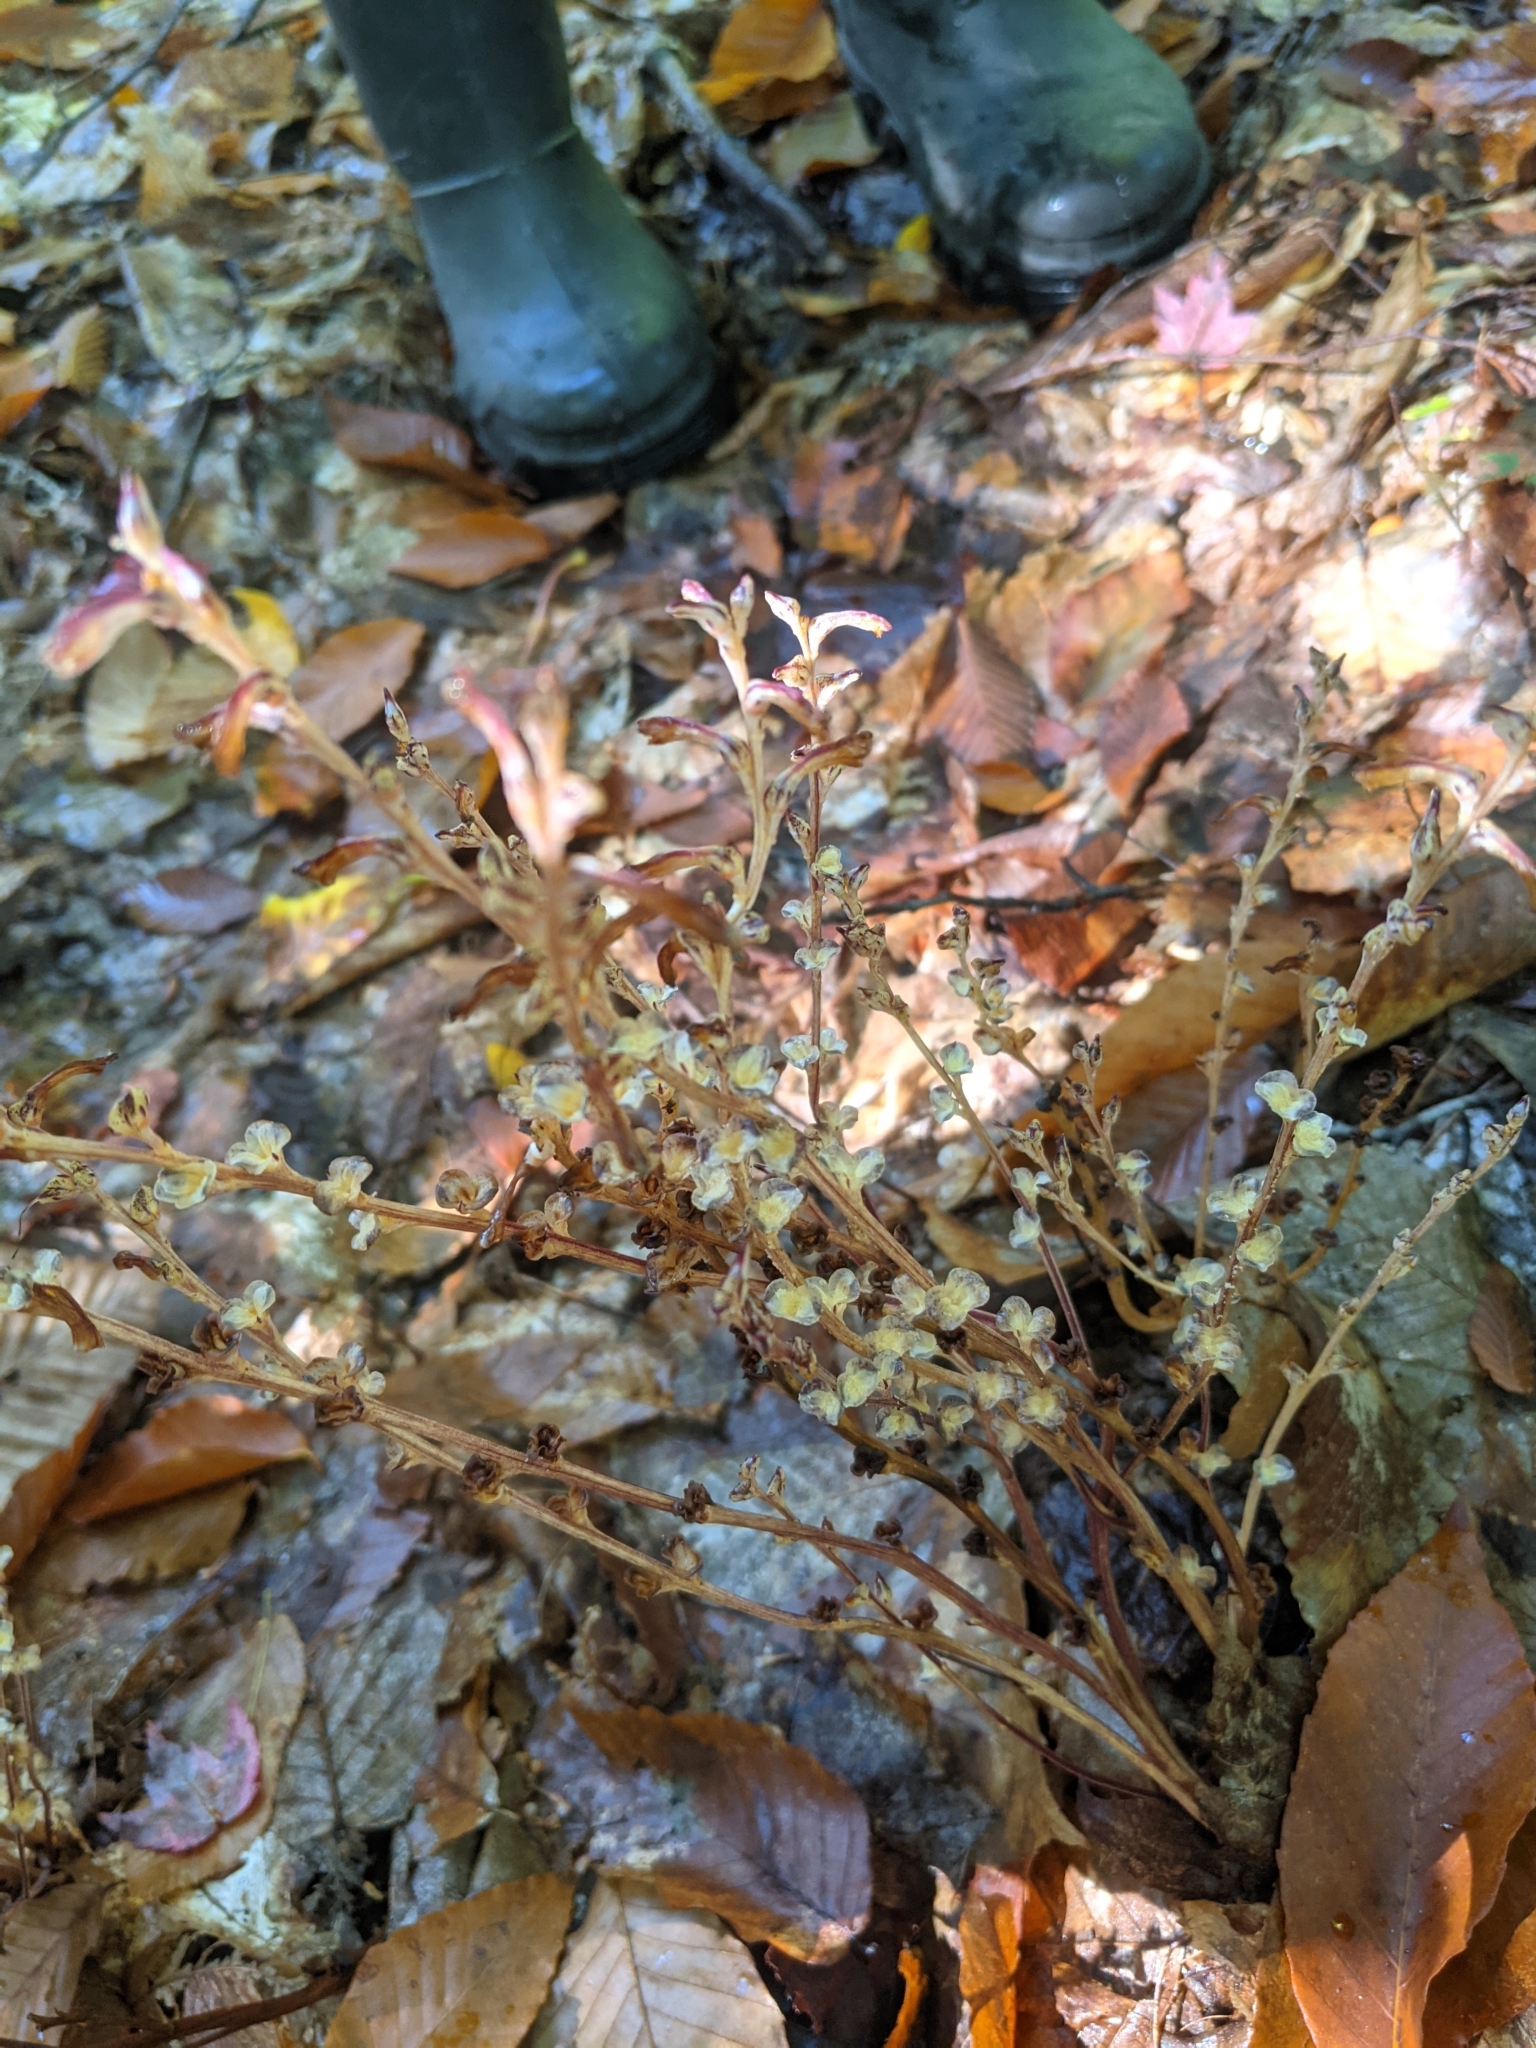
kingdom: Plantae
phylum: Tracheophyta
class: Magnoliopsida
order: Lamiales
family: Orobanchaceae
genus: Epifagus
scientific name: Epifagus virginiana
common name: Beechdrops
